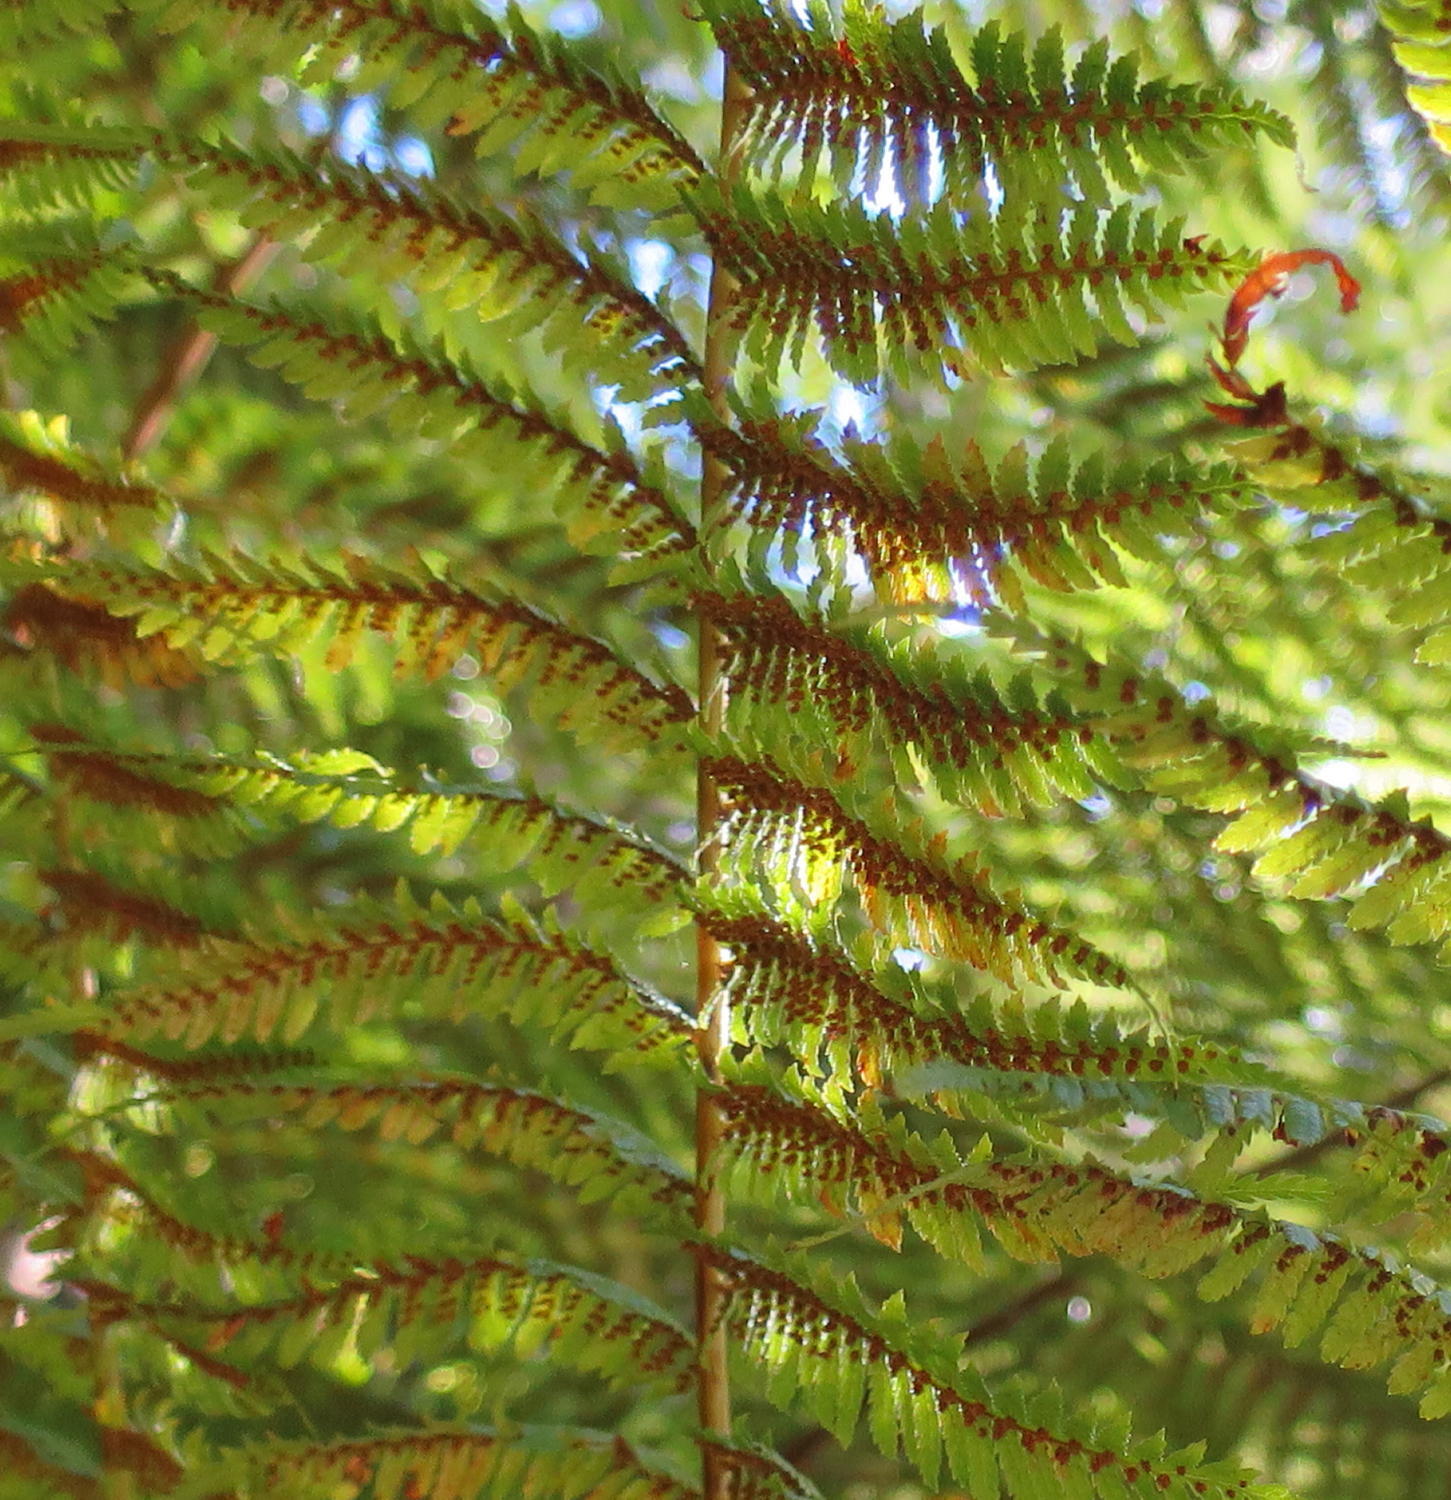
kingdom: Plantae
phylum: Tracheophyta
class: Polypodiopsida
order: Cyatheales
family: Cyatheaceae
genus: Gymnosphaera
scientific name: Gymnosphaera capensis
